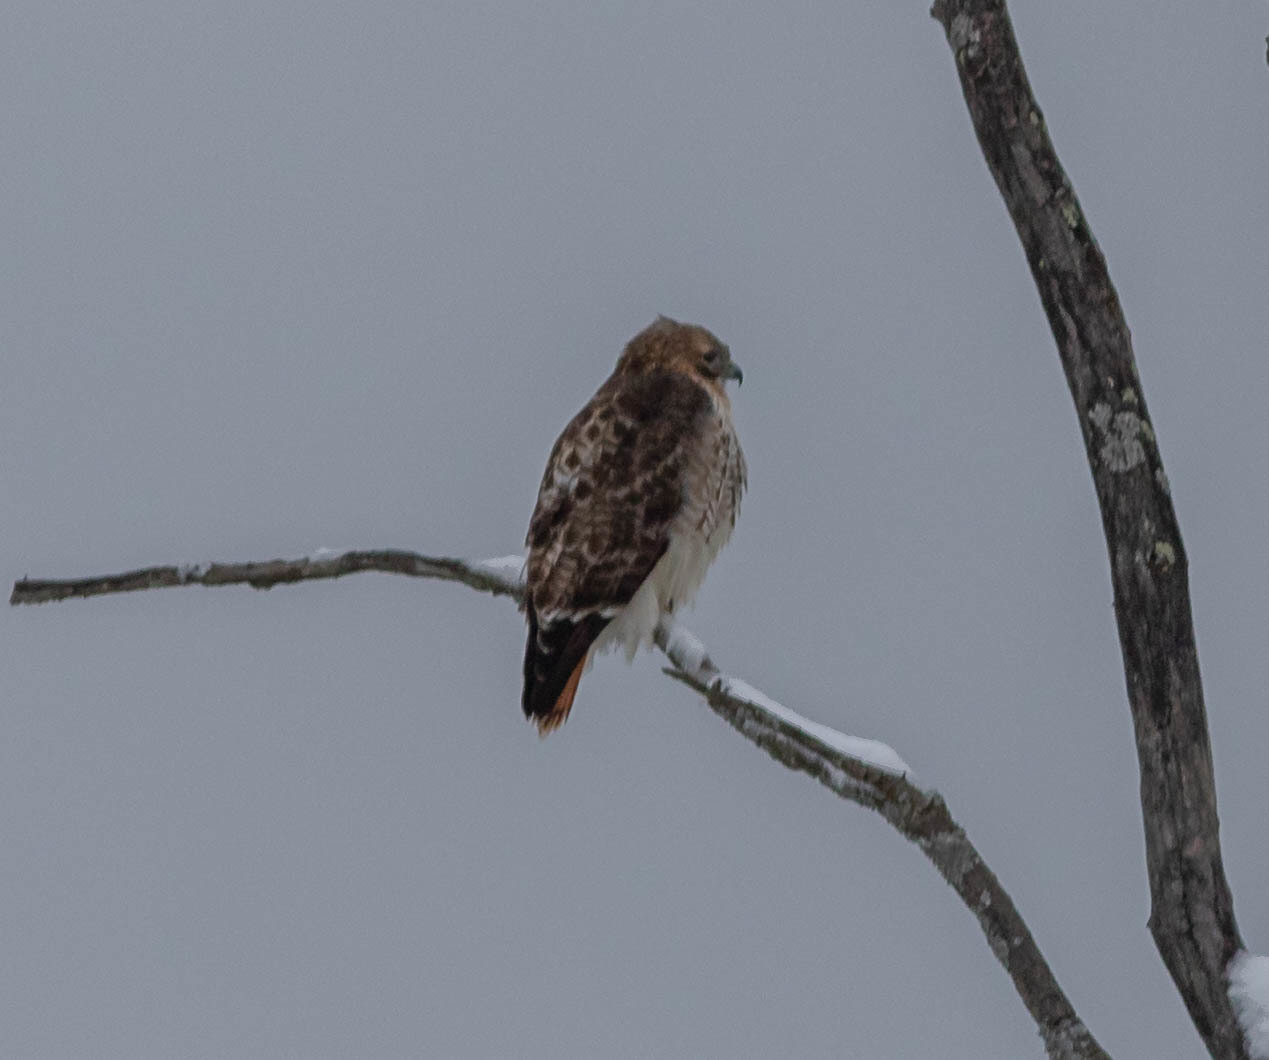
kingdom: Animalia
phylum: Chordata
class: Aves
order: Accipitriformes
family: Accipitridae
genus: Buteo
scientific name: Buteo jamaicensis
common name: Red-tailed hawk
